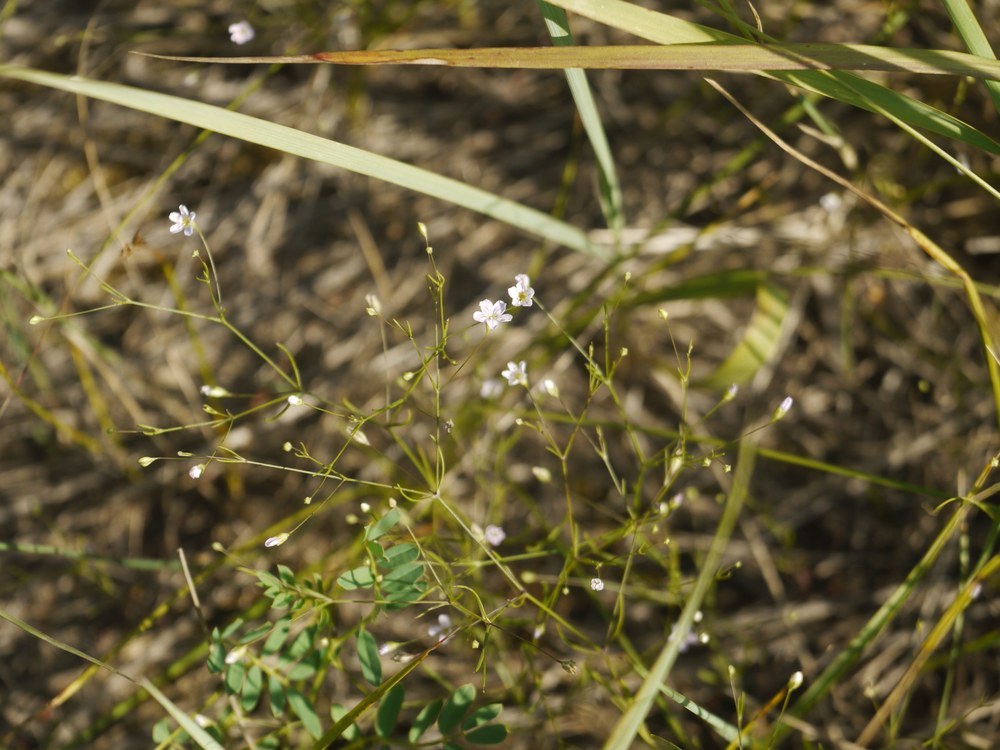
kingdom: Plantae
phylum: Tracheophyta
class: Magnoliopsida
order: Caryophyllales
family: Caryophyllaceae
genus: Psammophiliella
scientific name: Psammophiliella muralis
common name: Cushion baby's-breath
